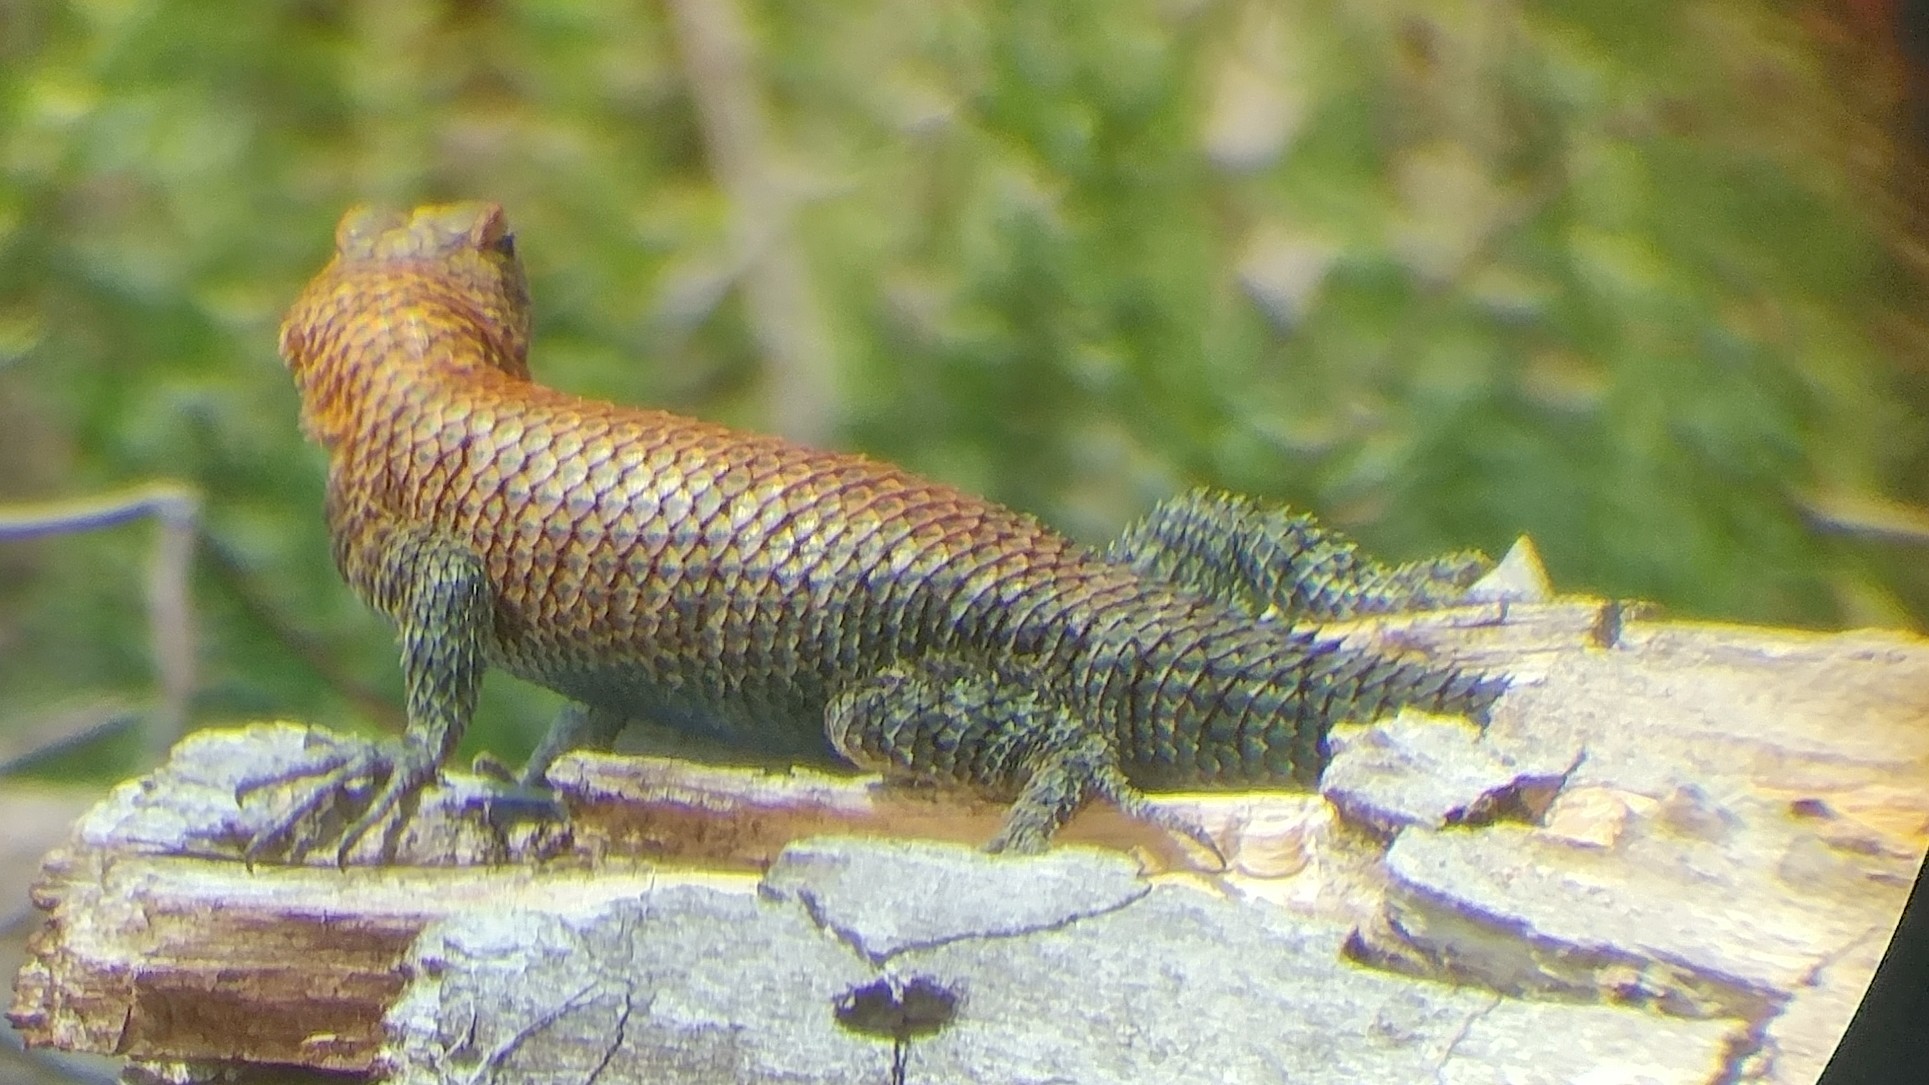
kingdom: Animalia
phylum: Chordata
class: Squamata
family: Phrynosomatidae
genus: Sceloporus
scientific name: Sceloporus orcutti
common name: Granite spiny lizard
